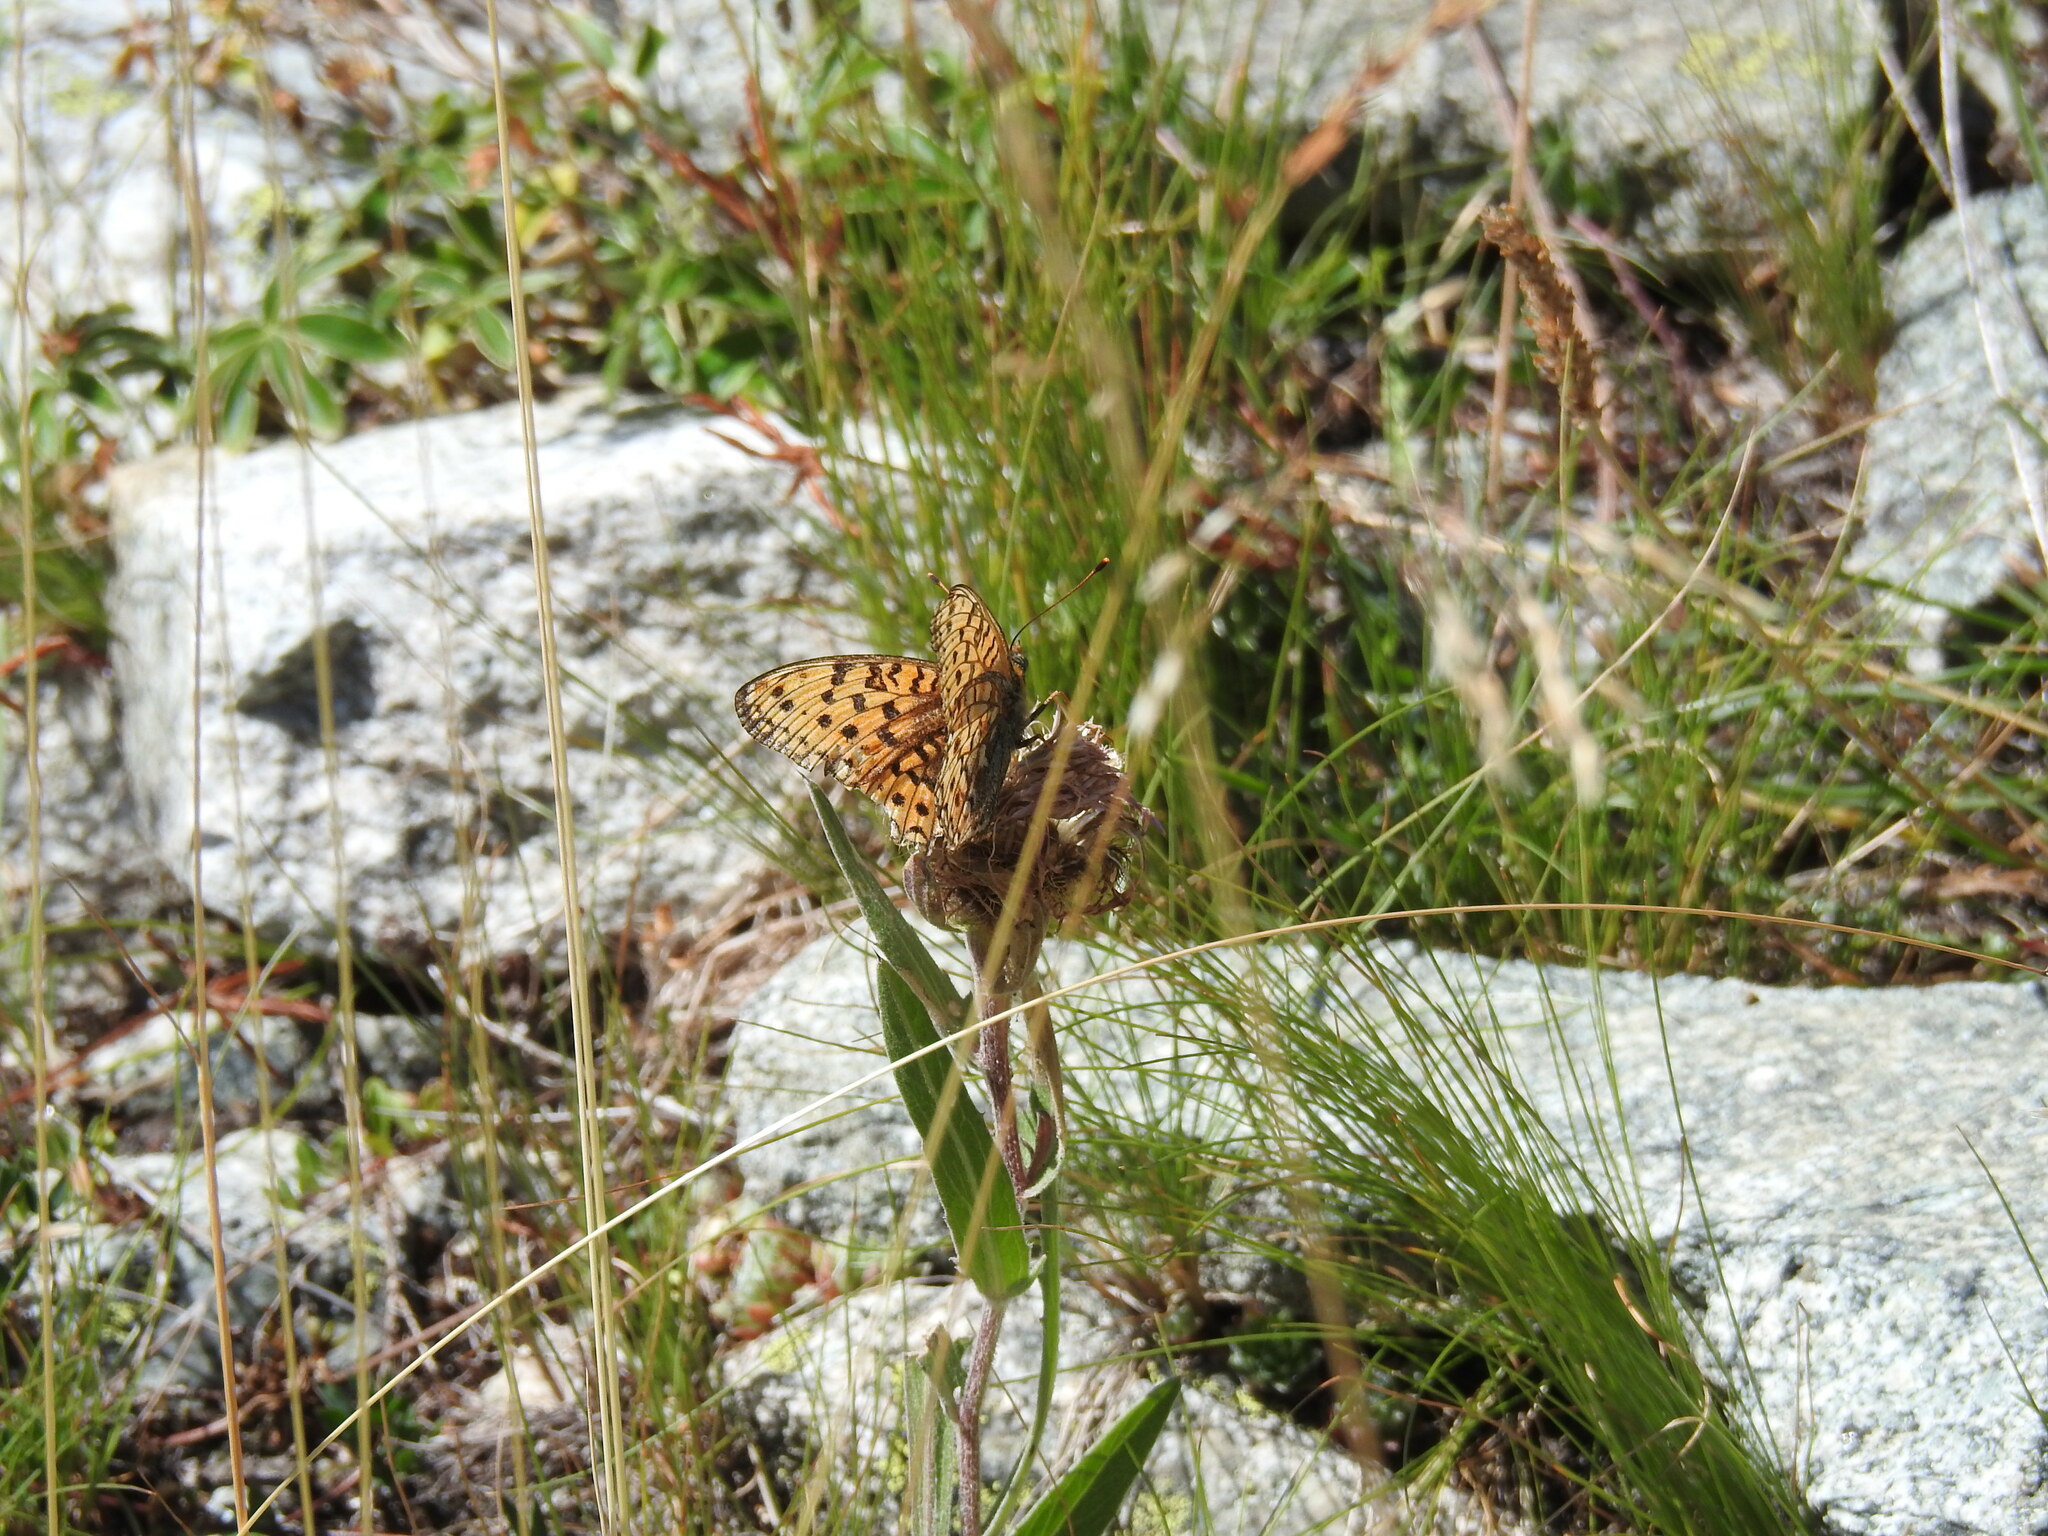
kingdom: Animalia
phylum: Arthropoda
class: Insecta
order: Lepidoptera
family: Nymphalidae
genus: Fabriciana
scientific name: Fabriciana niobe
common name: Niobe fritillary
